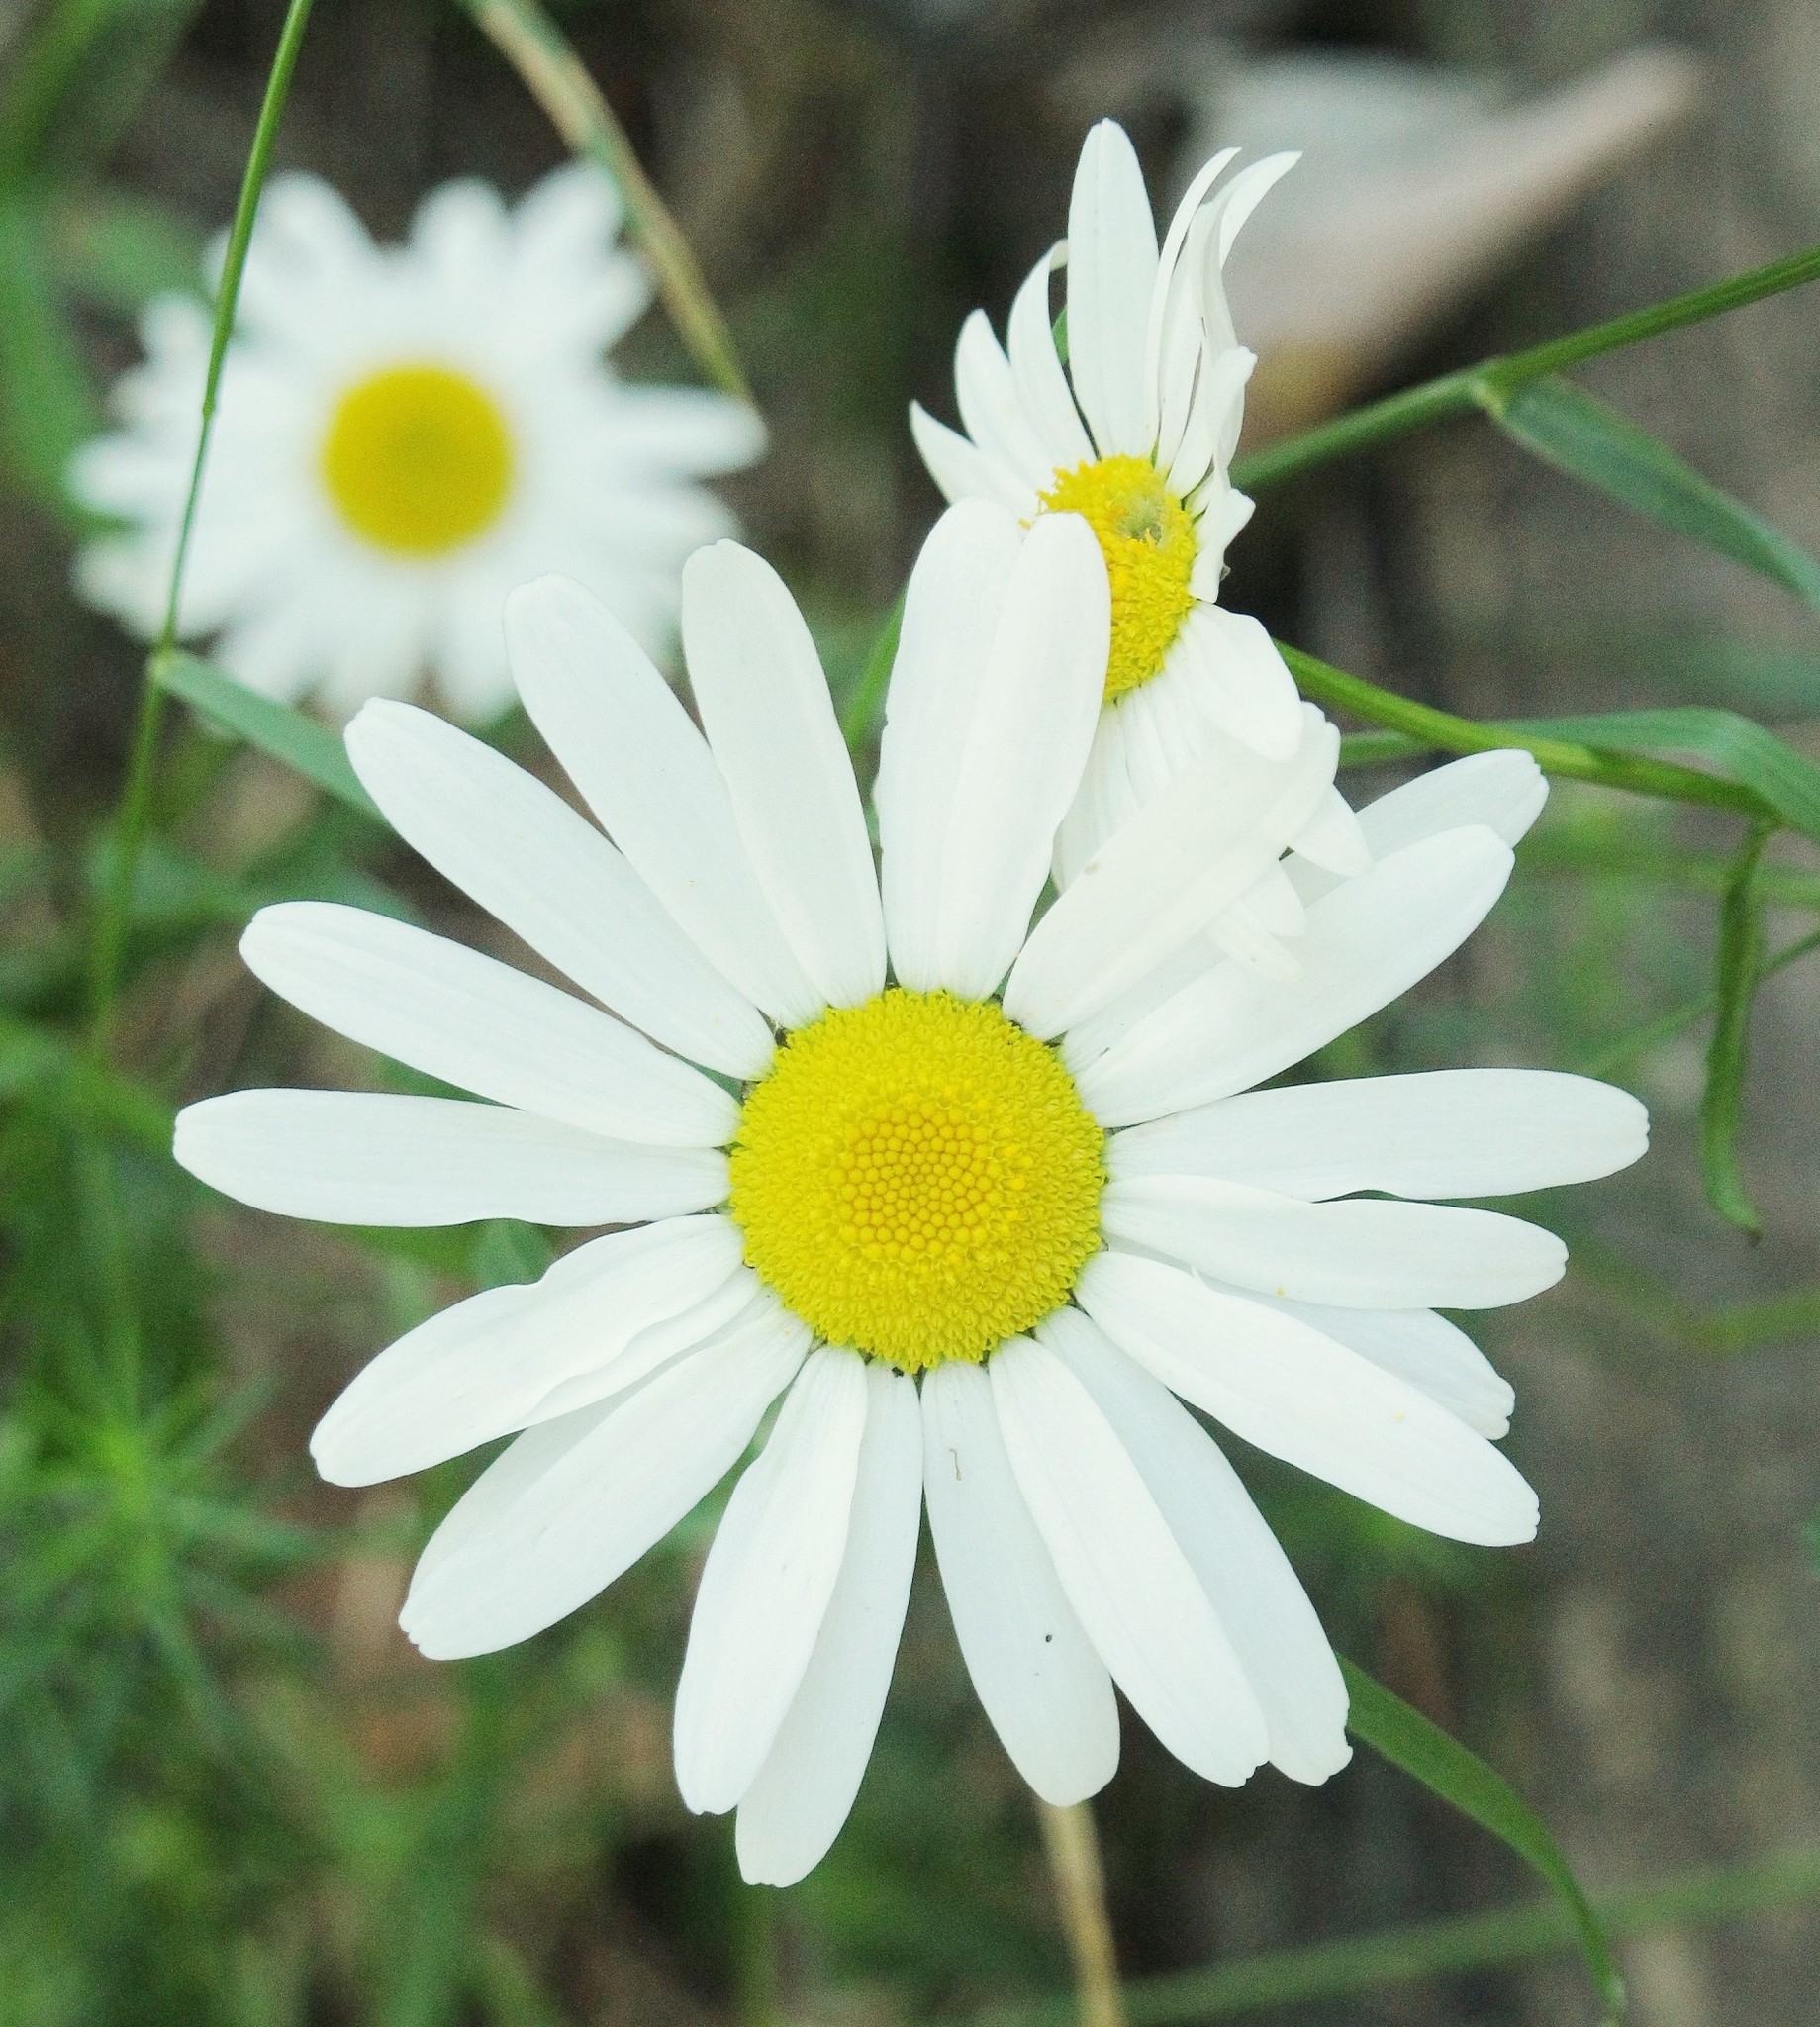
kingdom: Plantae
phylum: Tracheophyta
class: Magnoliopsida
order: Asterales
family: Asteraceae
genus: Leucanthemum
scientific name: Leucanthemum vulgare
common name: Oxeye daisy
